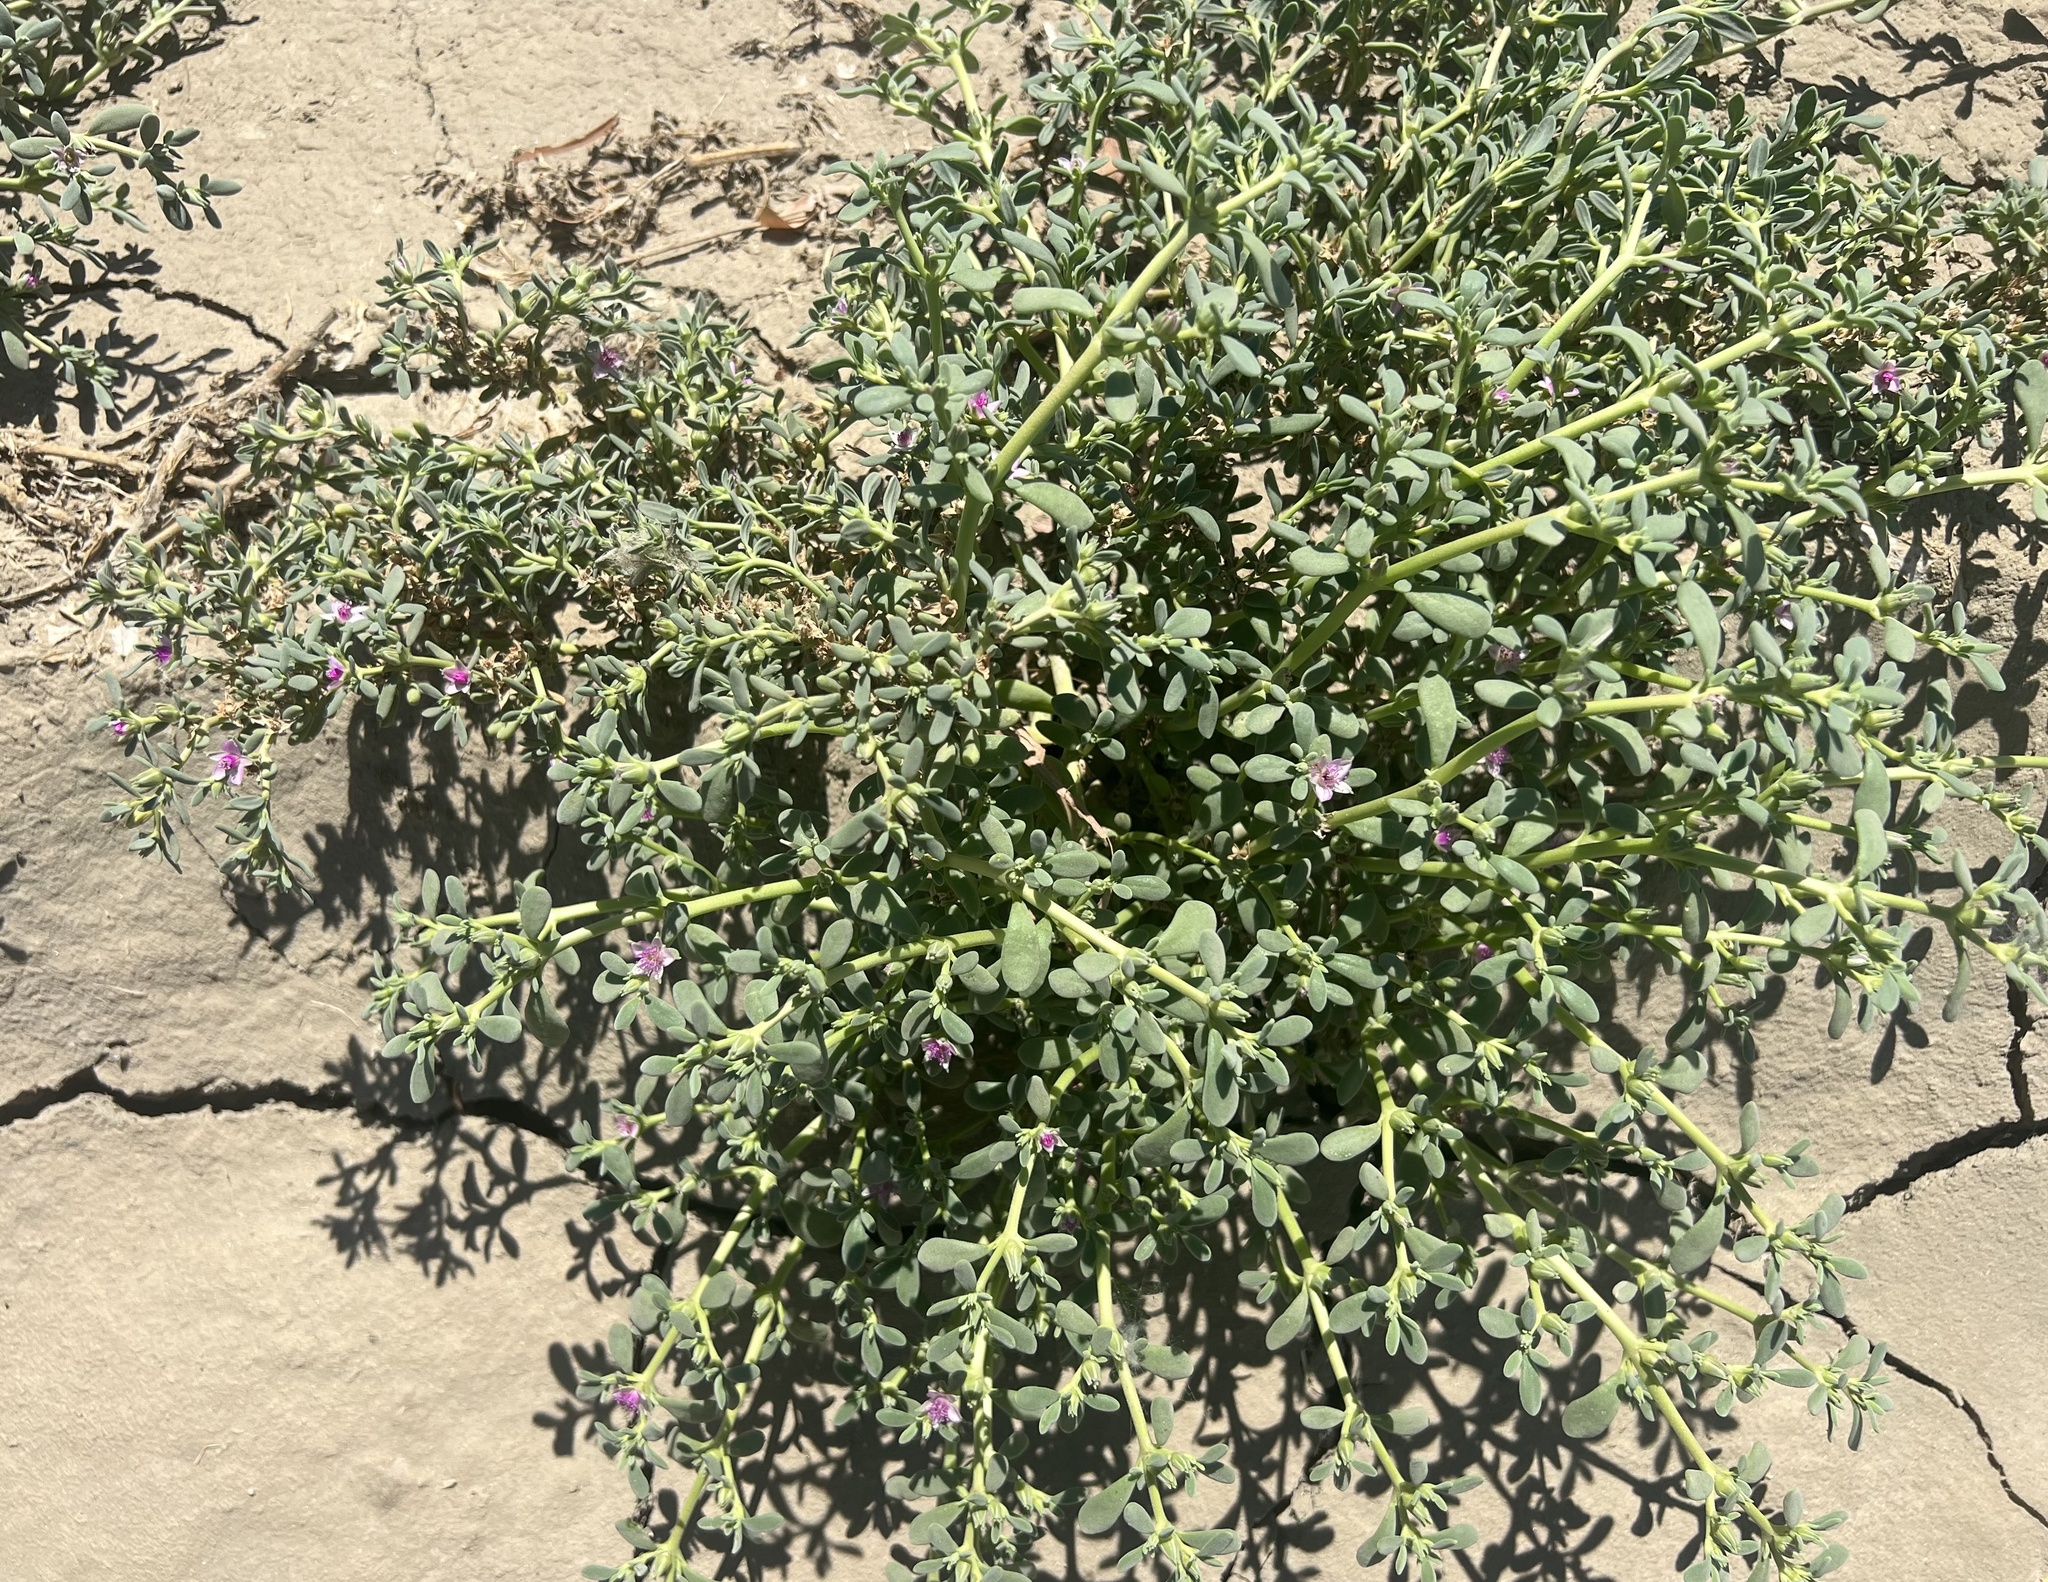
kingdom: Plantae
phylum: Tracheophyta
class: Magnoliopsida
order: Caryophyllales
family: Aizoaceae
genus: Sesuvium
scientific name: Sesuvium revolutifolium
